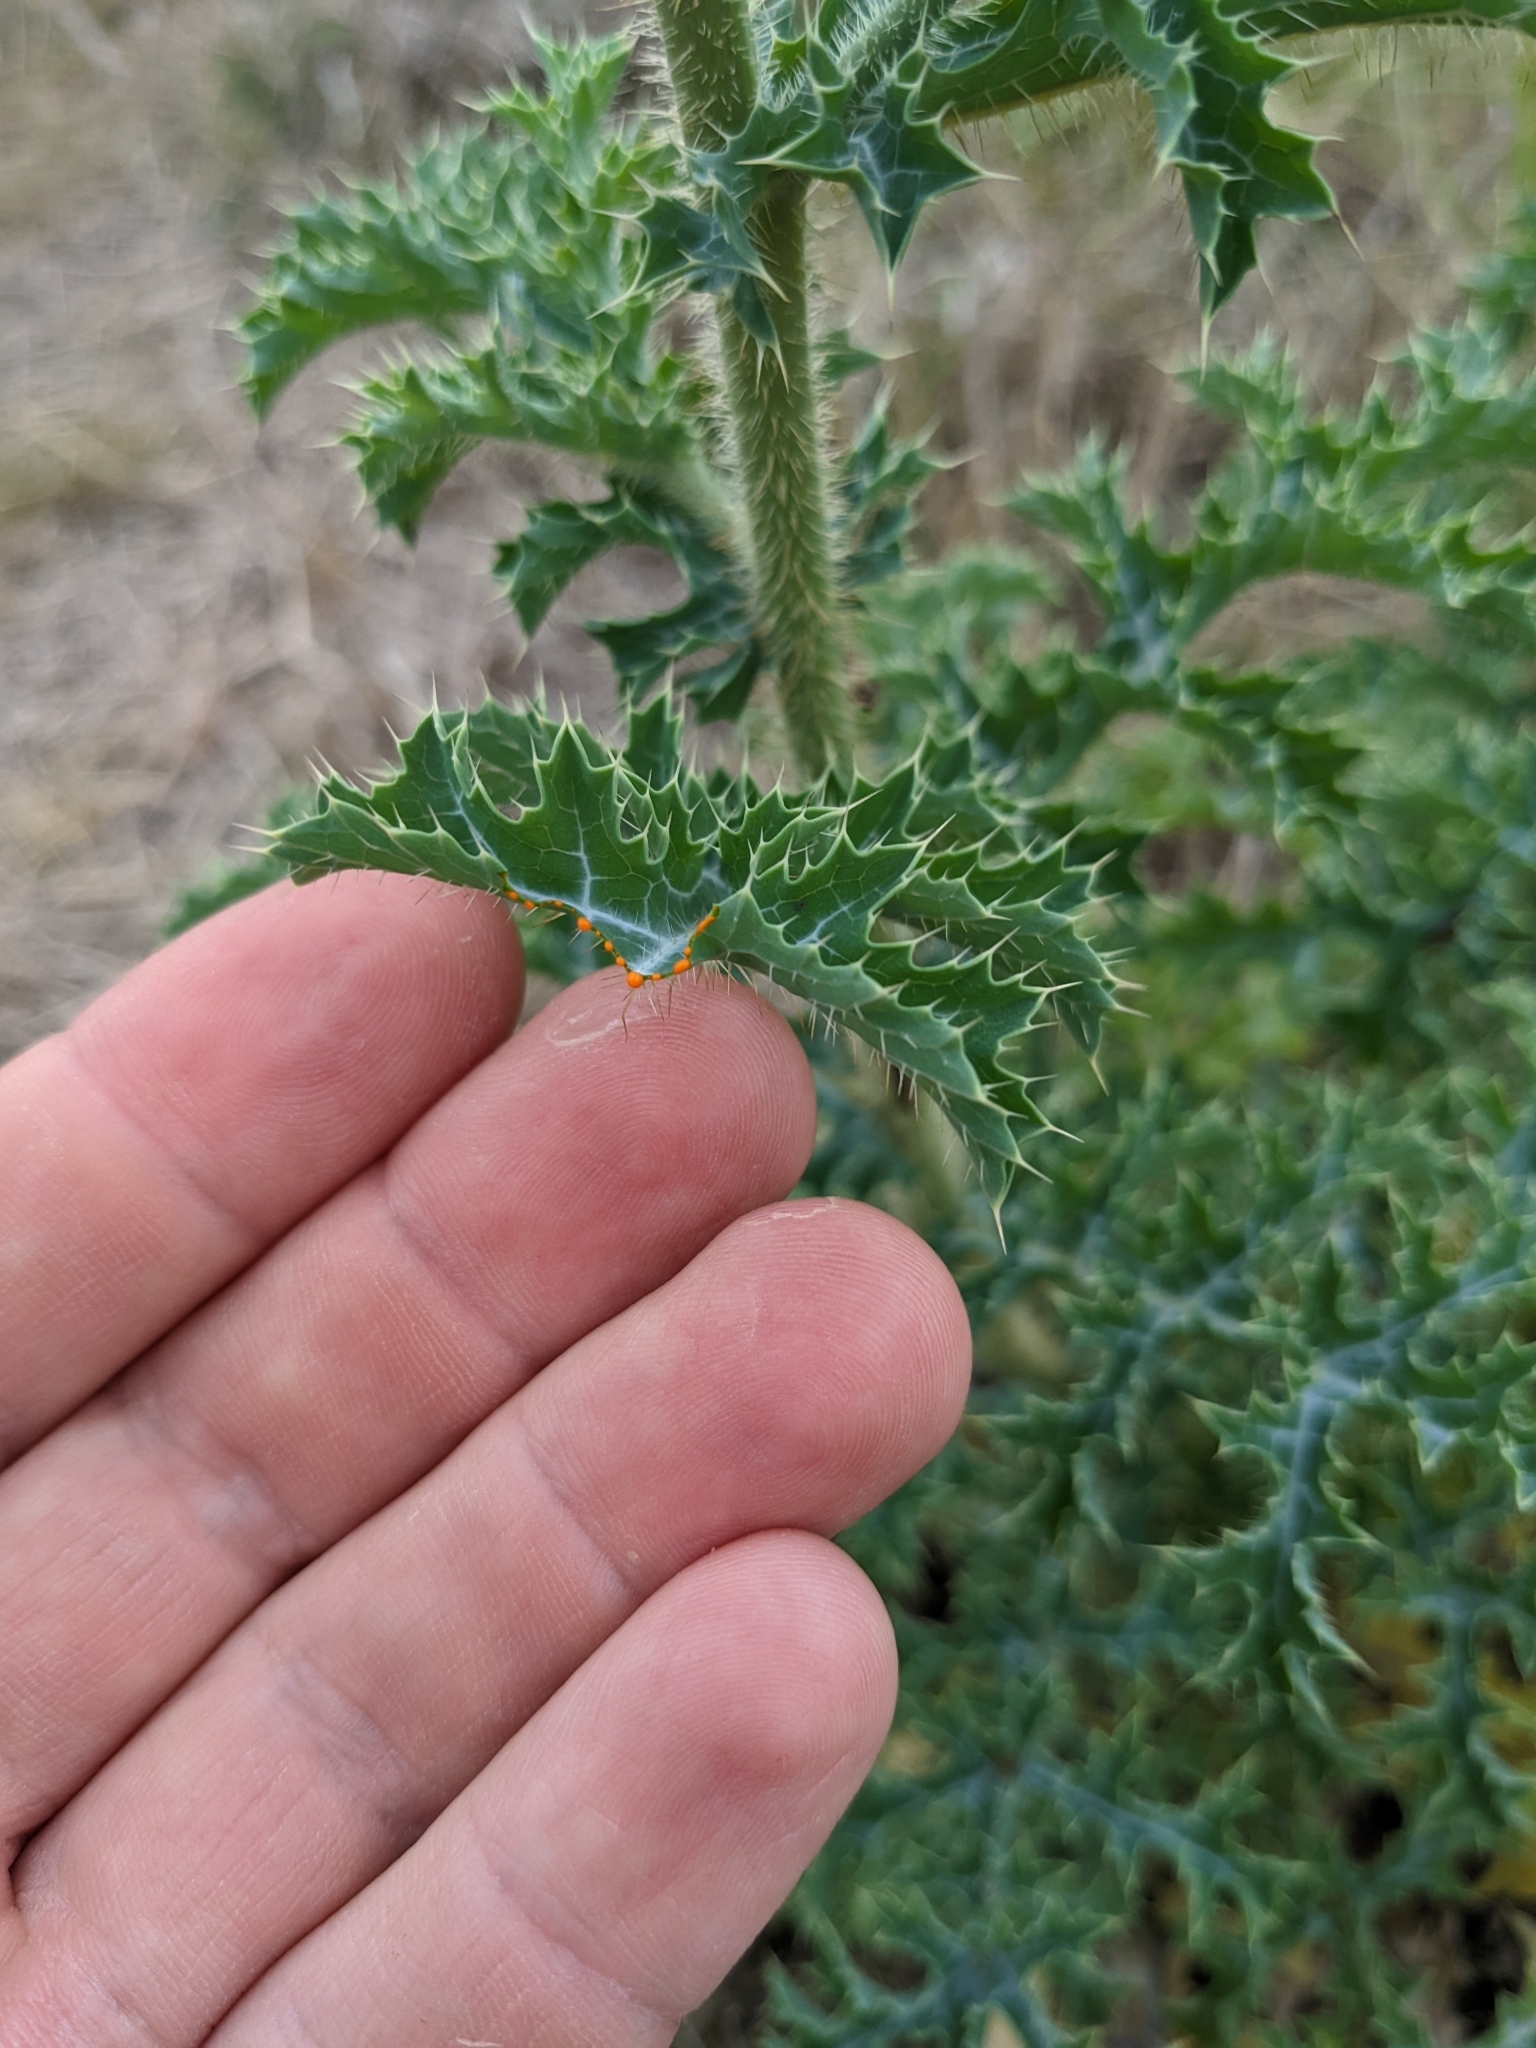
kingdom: Plantae
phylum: Tracheophyta
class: Magnoliopsida
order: Ranunculales
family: Papaveraceae
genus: Argemone
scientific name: Argemone aurantiaca
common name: Texas prickly-poppy
